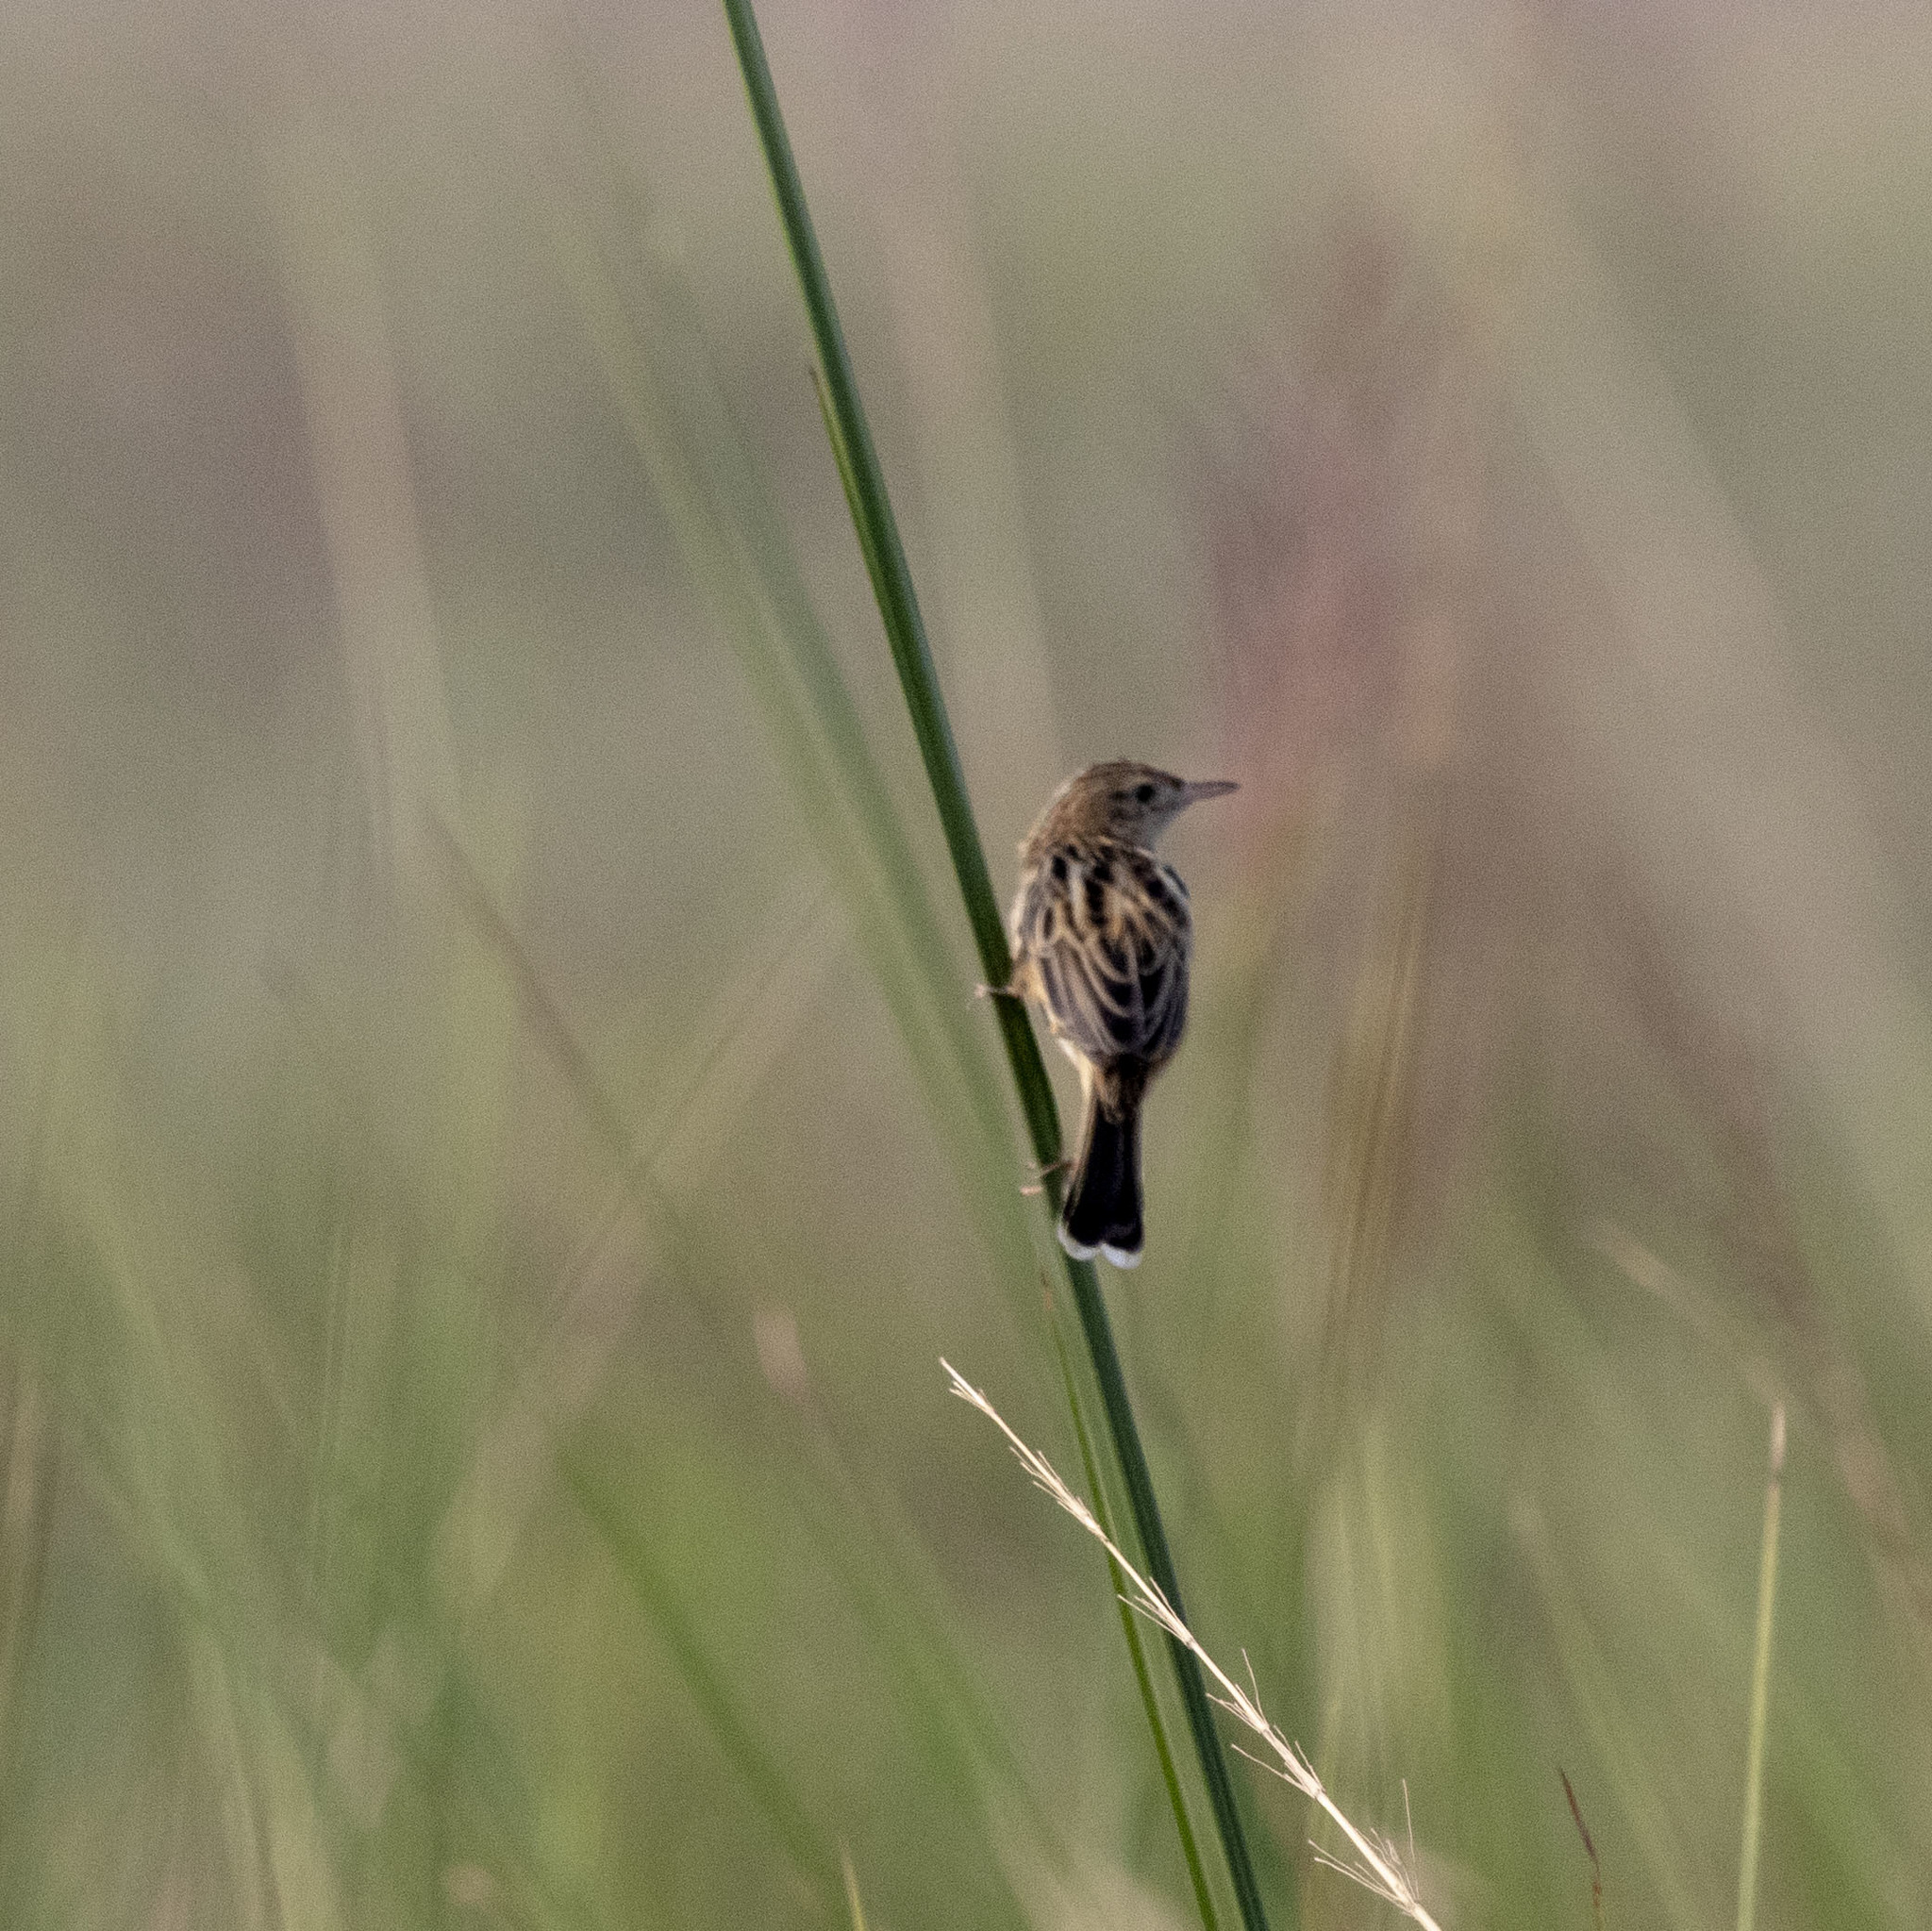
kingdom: Animalia
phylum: Chordata
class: Aves
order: Passeriformes
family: Cisticolidae
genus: Cisticola
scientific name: Cisticola juncidis
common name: Zitting cisticola
